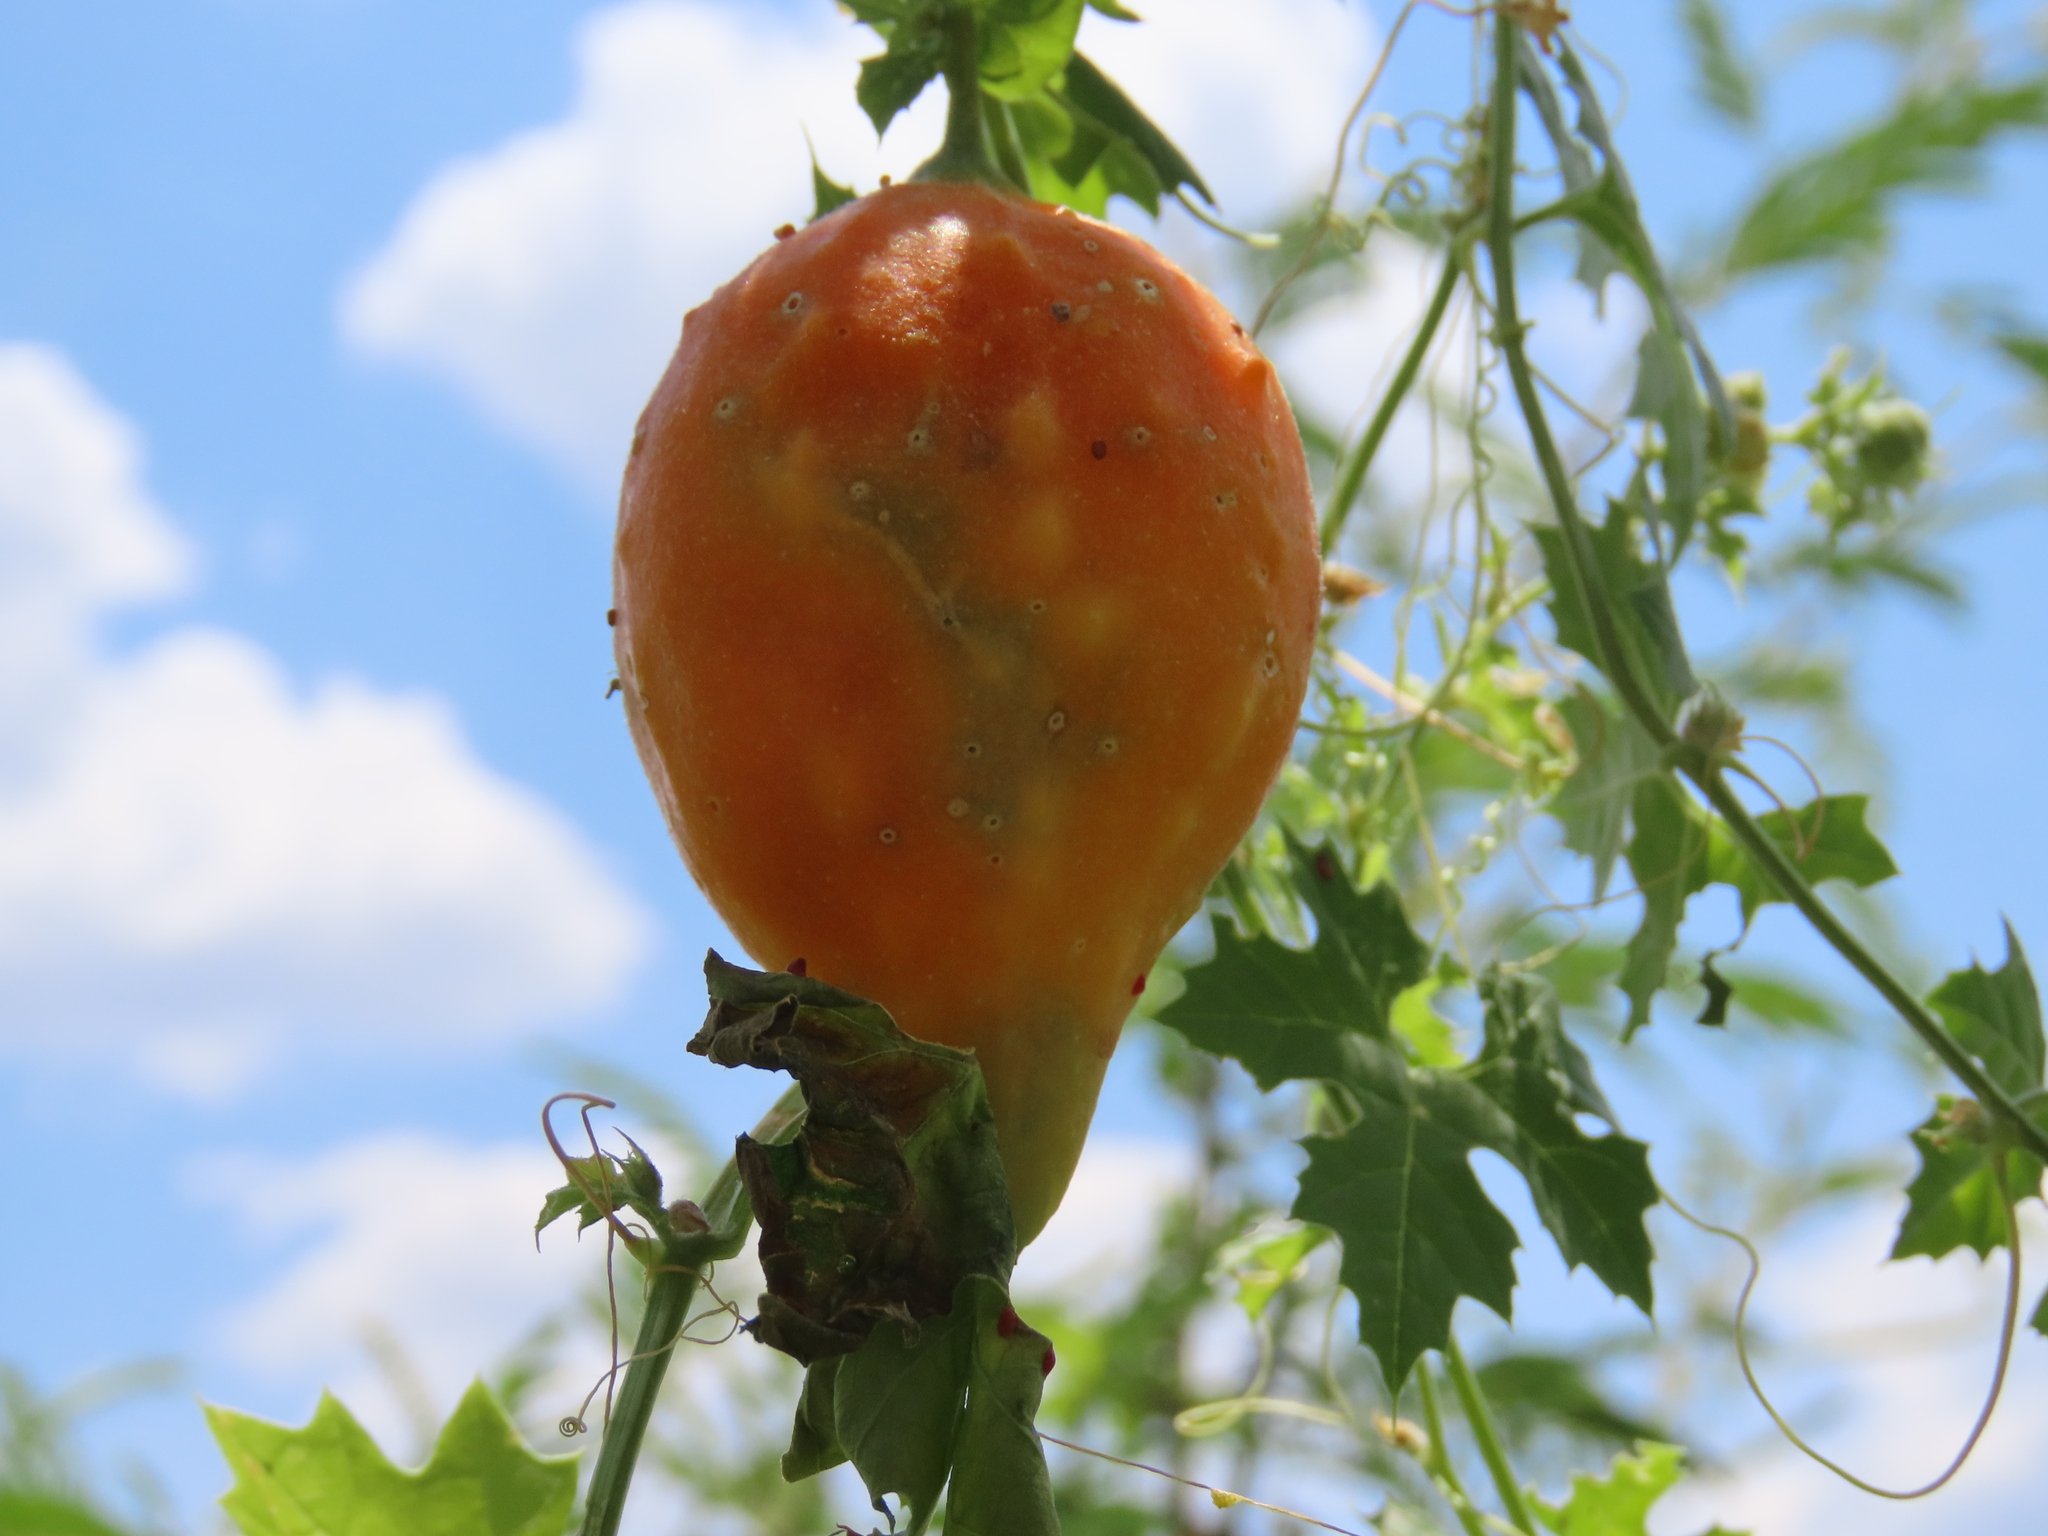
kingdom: Plantae
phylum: Tracheophyta
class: Magnoliopsida
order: Cucurbitales
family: Cucurbitaceae
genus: Momordica
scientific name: Momordica balsamina
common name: Southern balsampear
